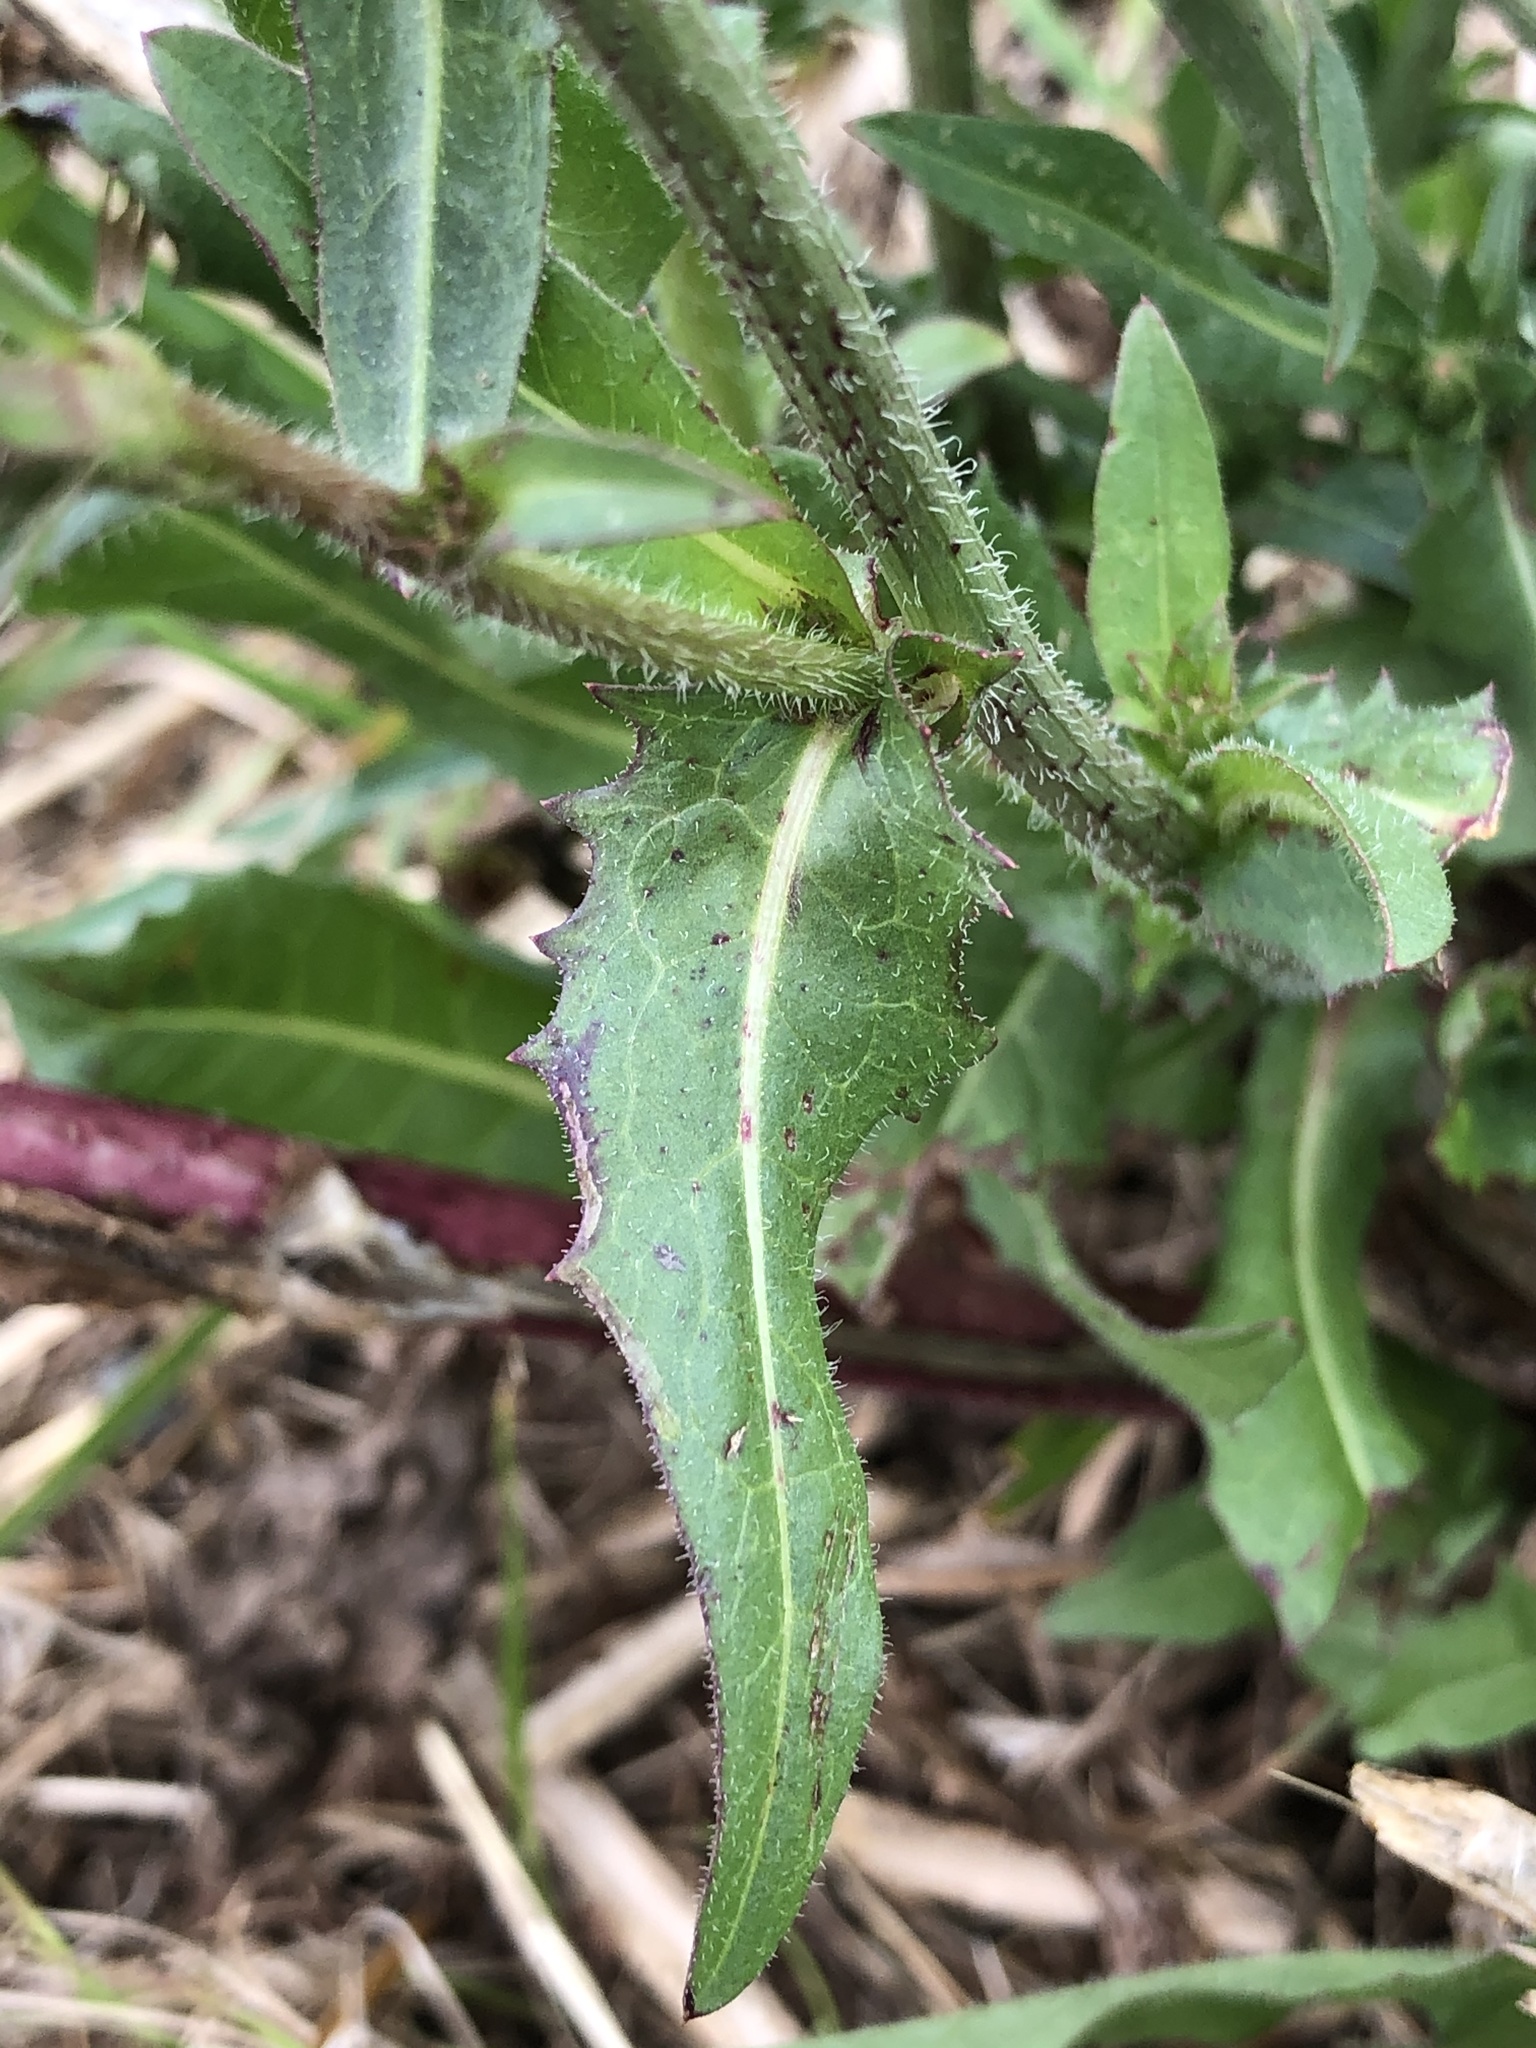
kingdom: Plantae
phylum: Tracheophyta
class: Magnoliopsida
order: Asterales
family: Asteraceae
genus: Cichorium
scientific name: Cichorium intybus
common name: Chicory
